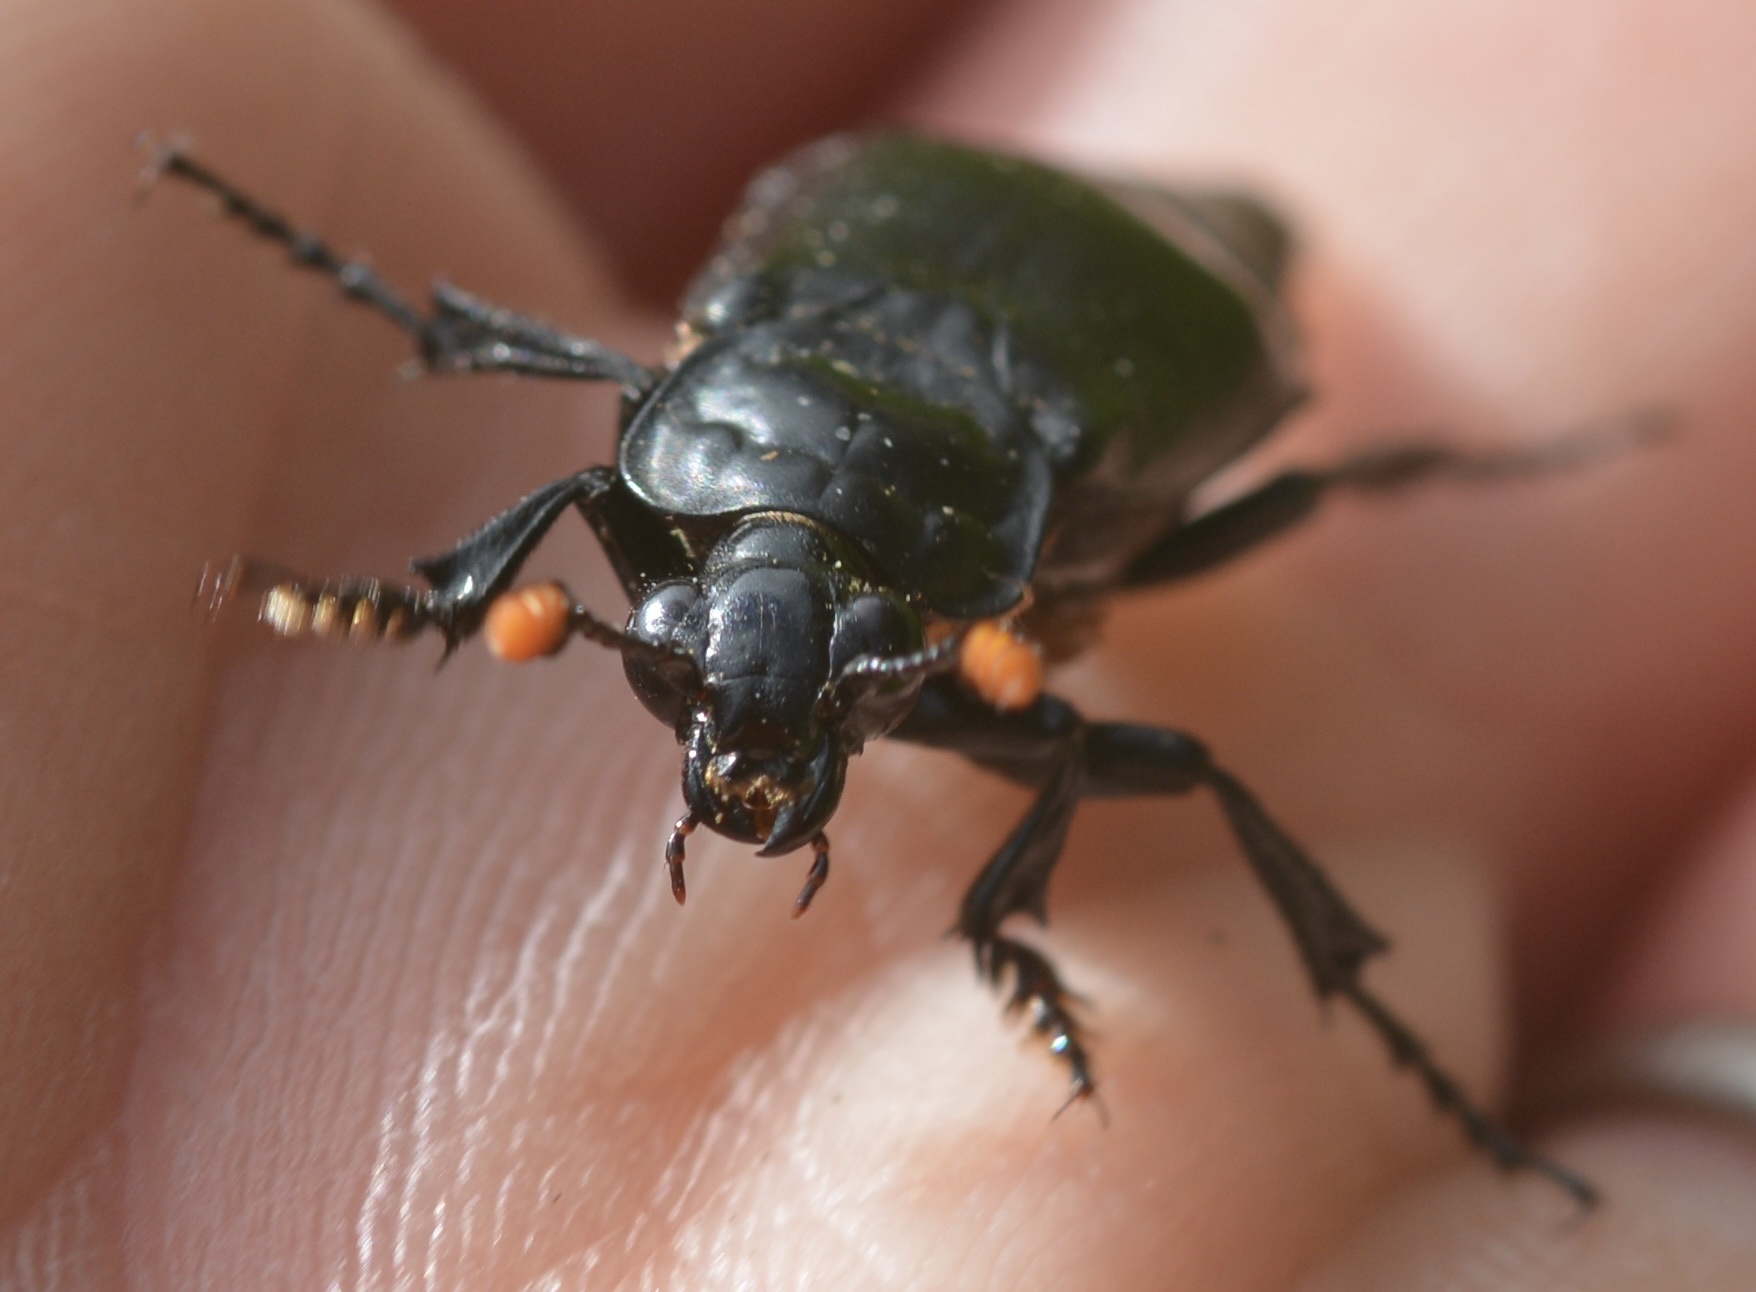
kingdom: Animalia
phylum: Arthropoda
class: Insecta
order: Coleoptera
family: Staphylinidae
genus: Nicrophorus
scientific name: Nicrophorus nigrita
